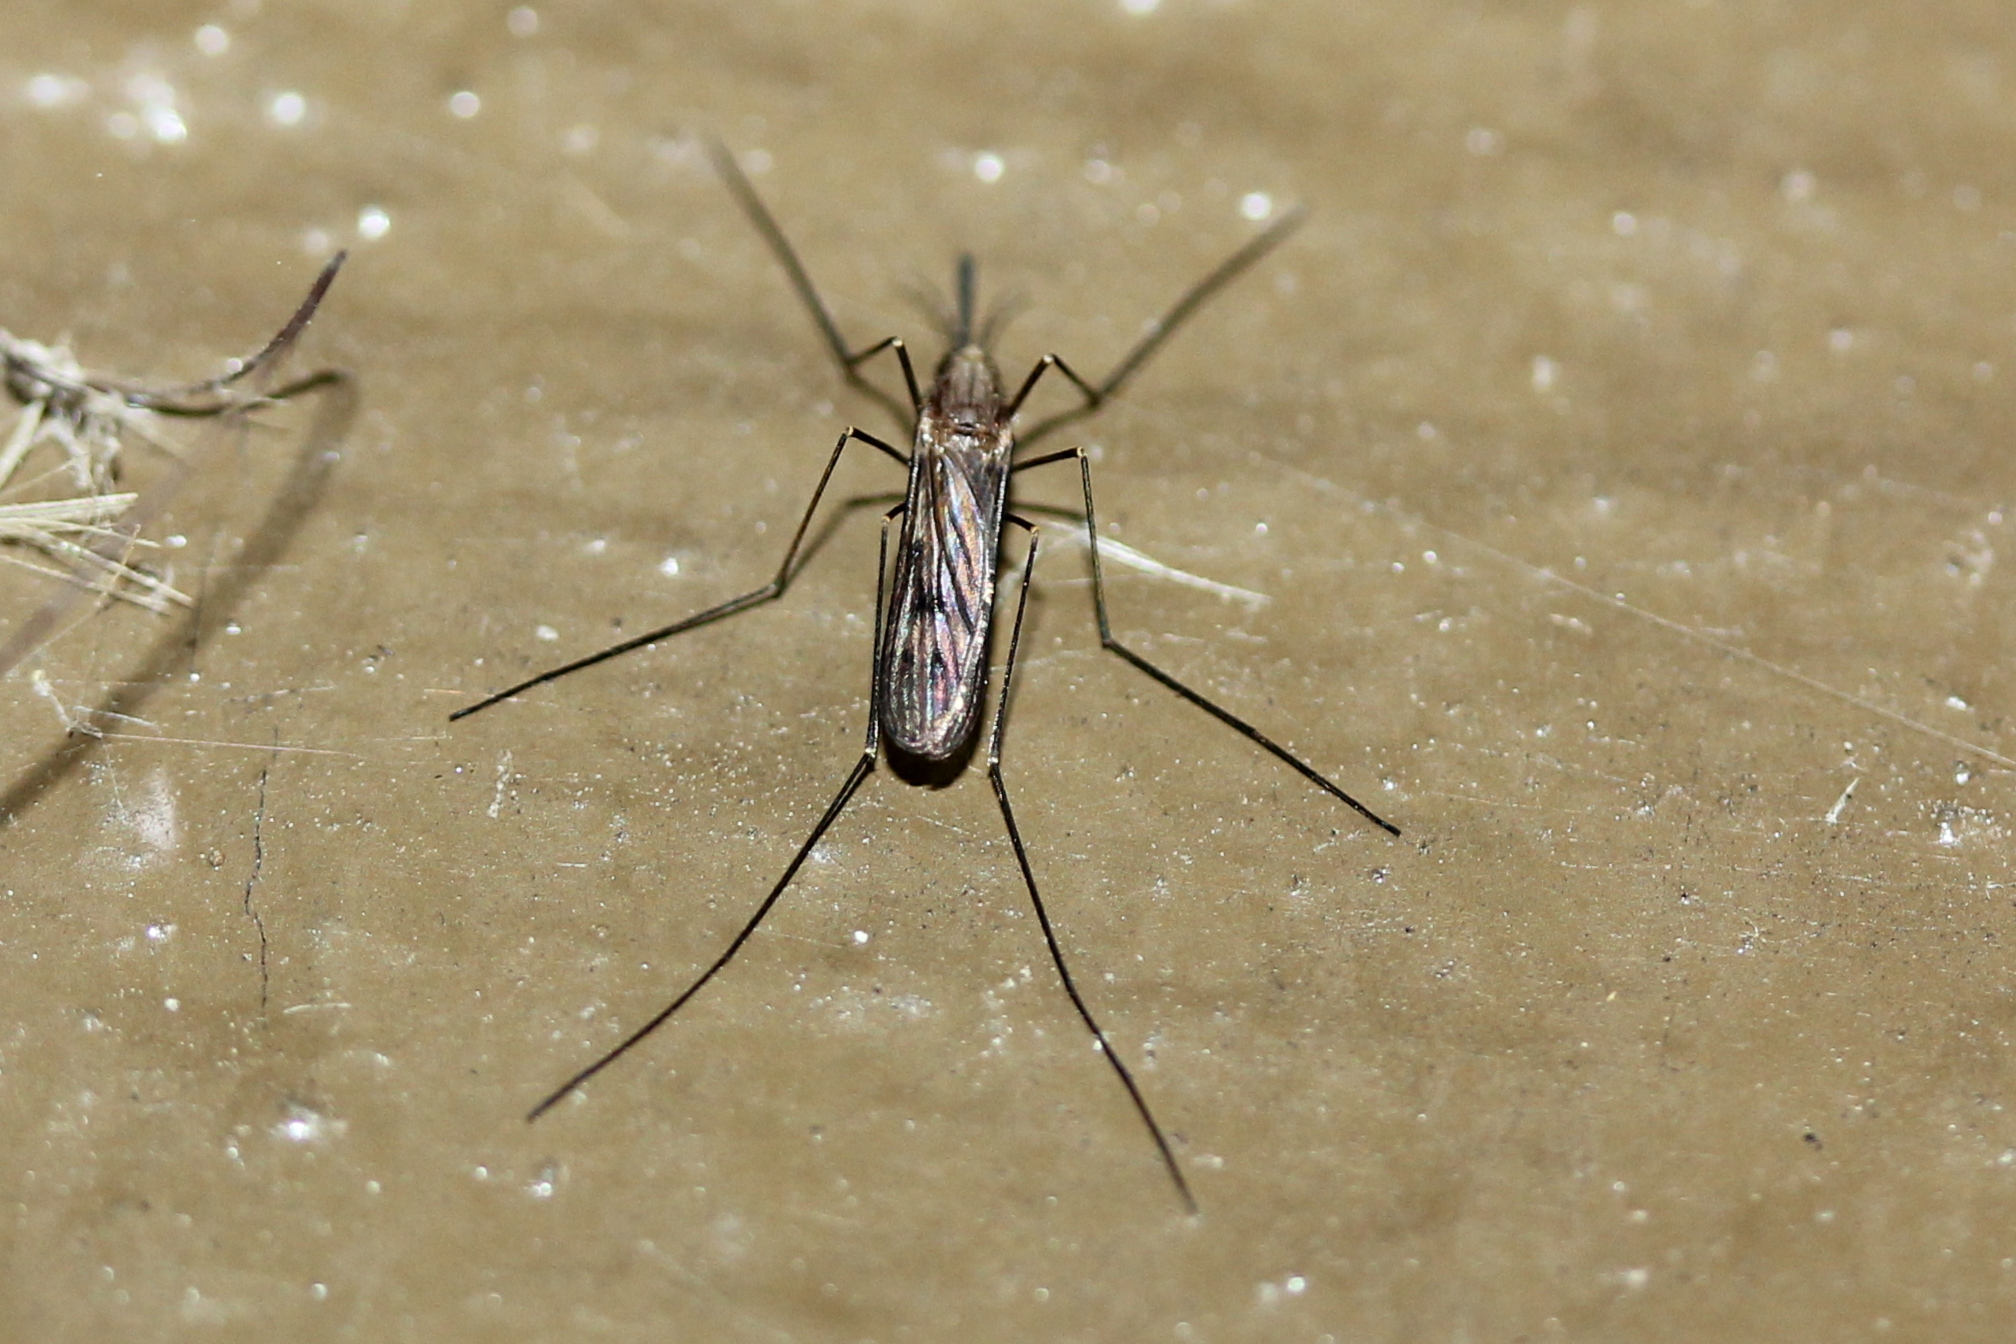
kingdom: Animalia
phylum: Arthropoda
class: Insecta
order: Diptera
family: Culicidae
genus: Anopheles
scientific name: Anopheles quadrimaculatus
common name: Common malaria mosquito
